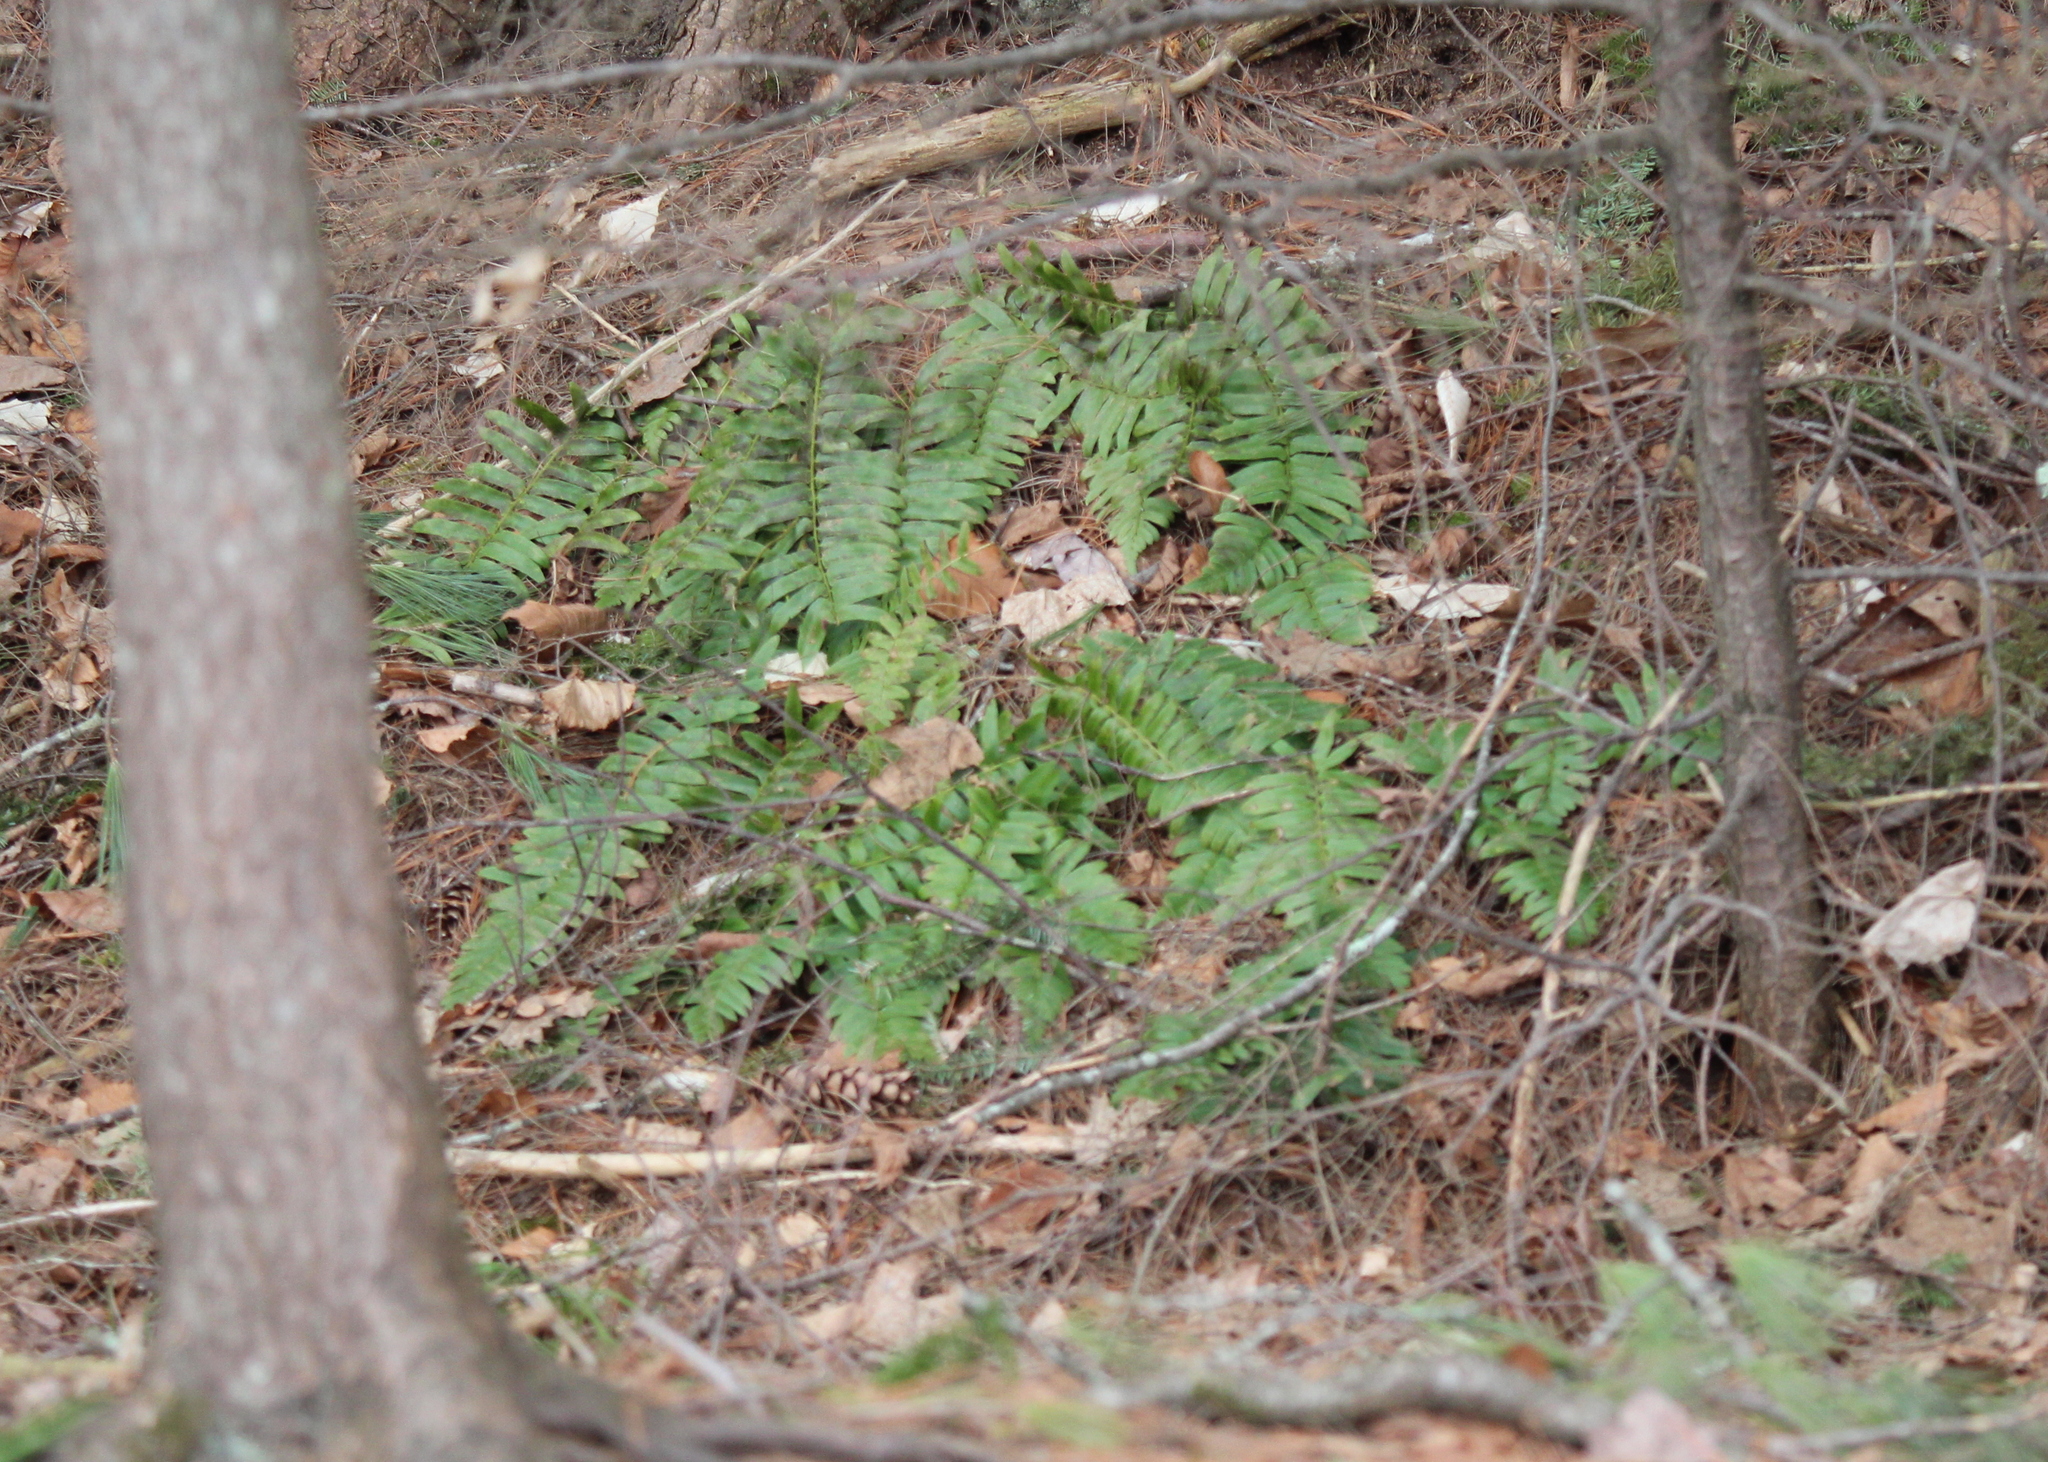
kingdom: Plantae
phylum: Tracheophyta
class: Polypodiopsida
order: Polypodiales
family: Dryopteridaceae
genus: Polystichum
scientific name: Polystichum acrostichoides
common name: Christmas fern
